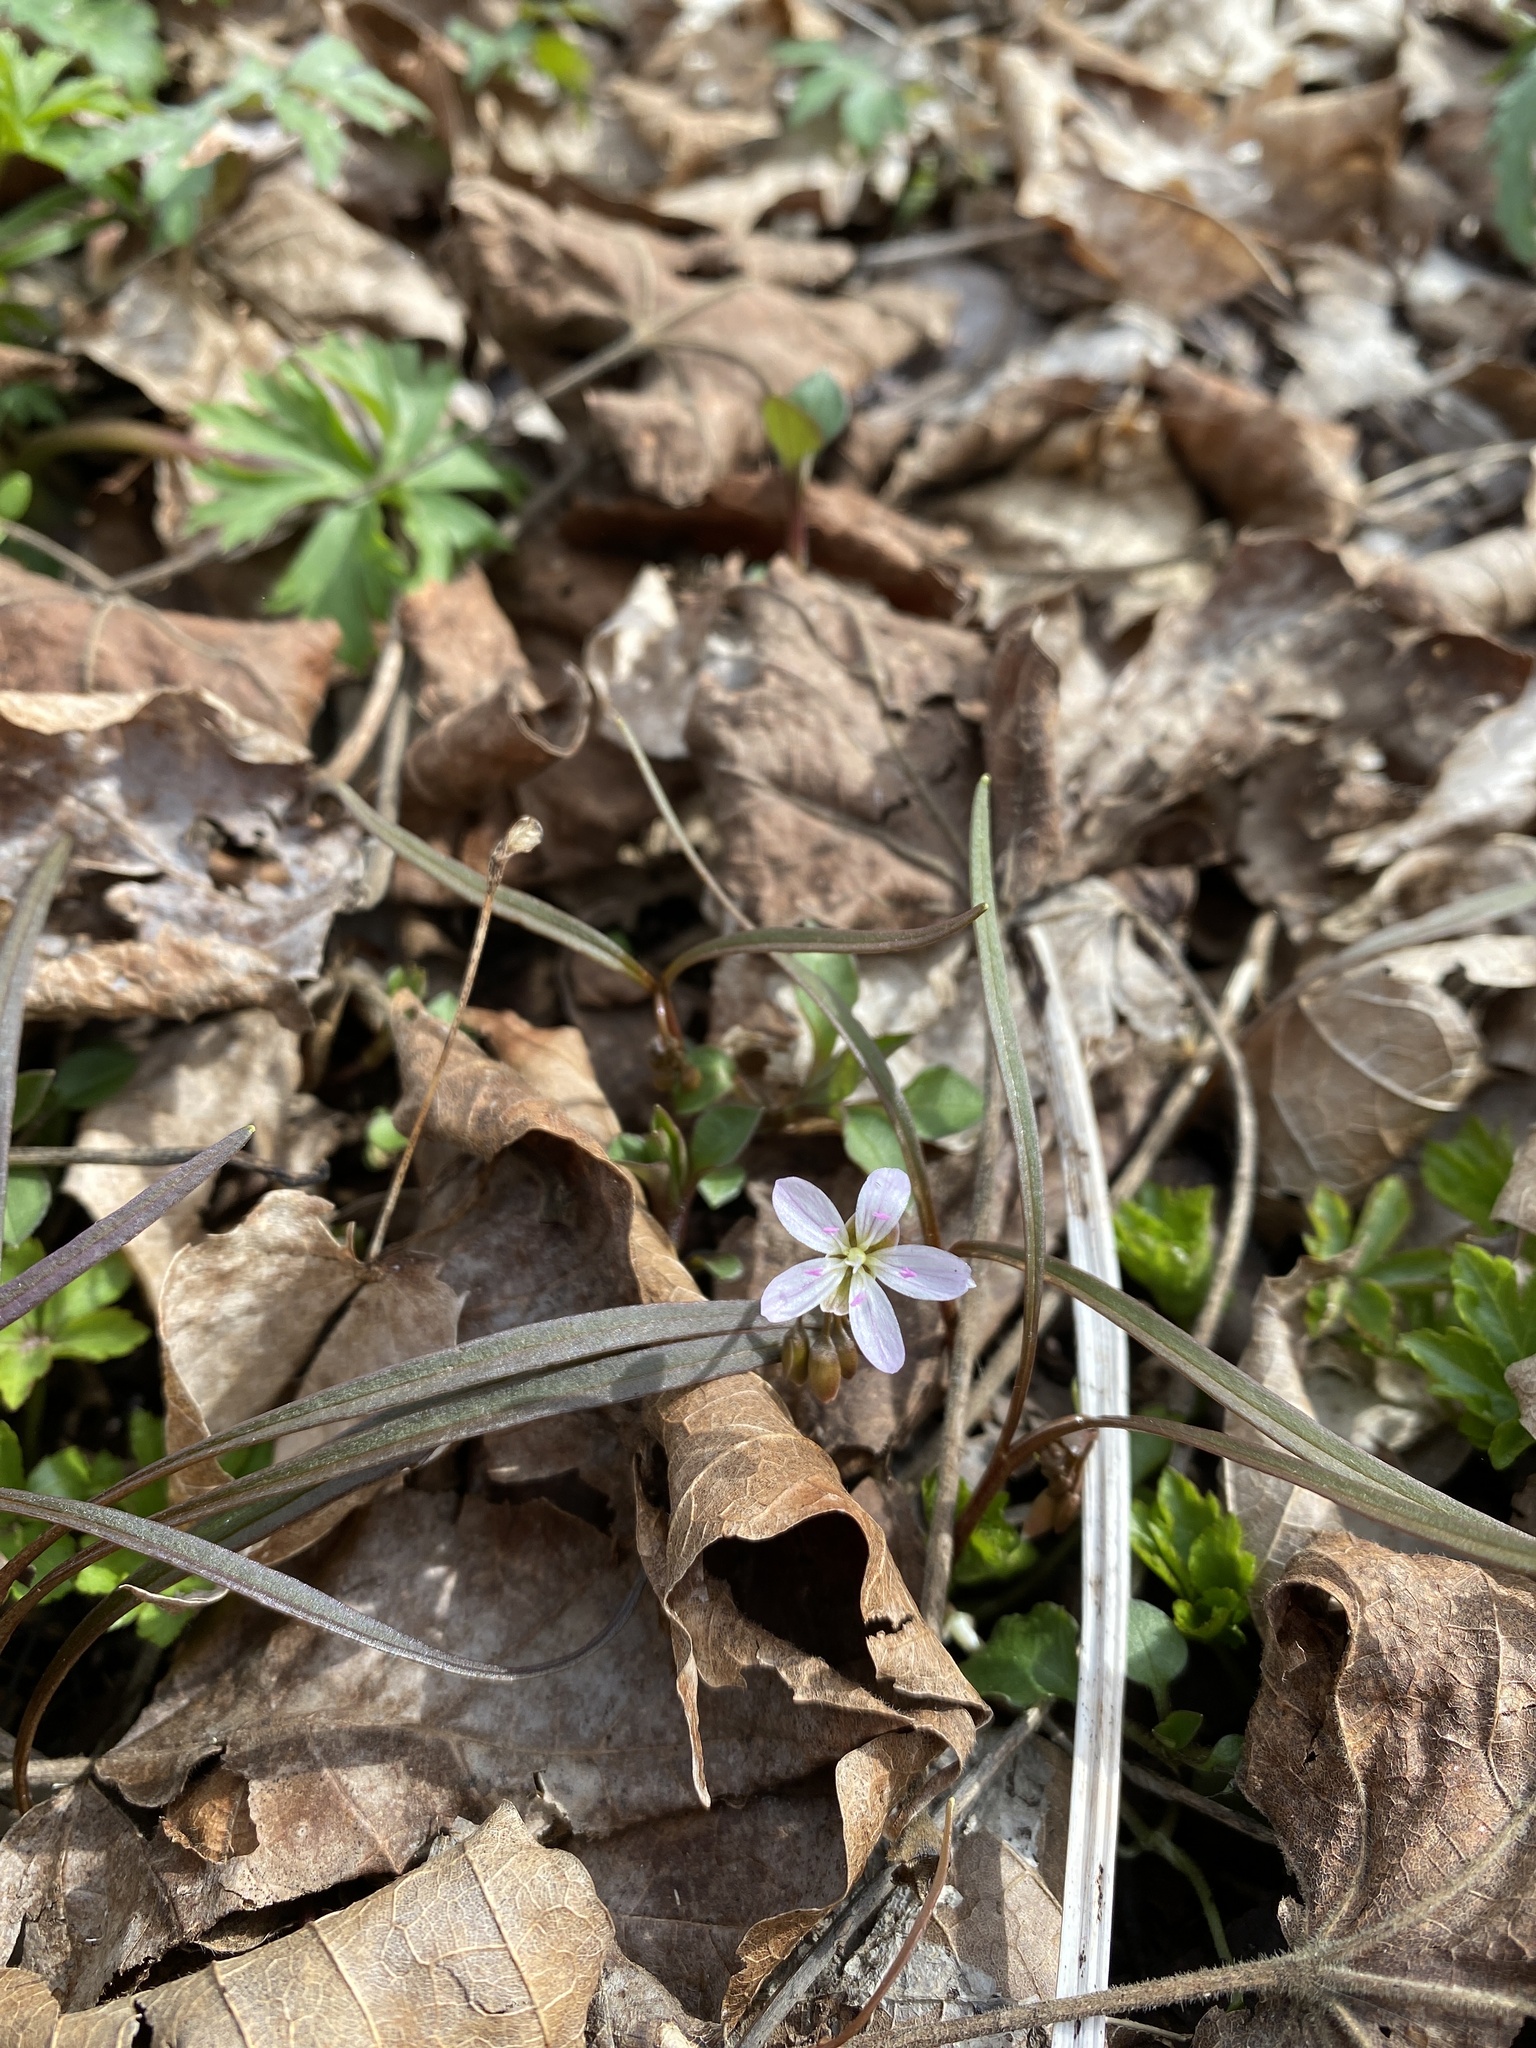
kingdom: Plantae
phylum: Tracheophyta
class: Magnoliopsida
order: Caryophyllales
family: Montiaceae
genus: Claytonia
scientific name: Claytonia virginica
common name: Virginia springbeauty
